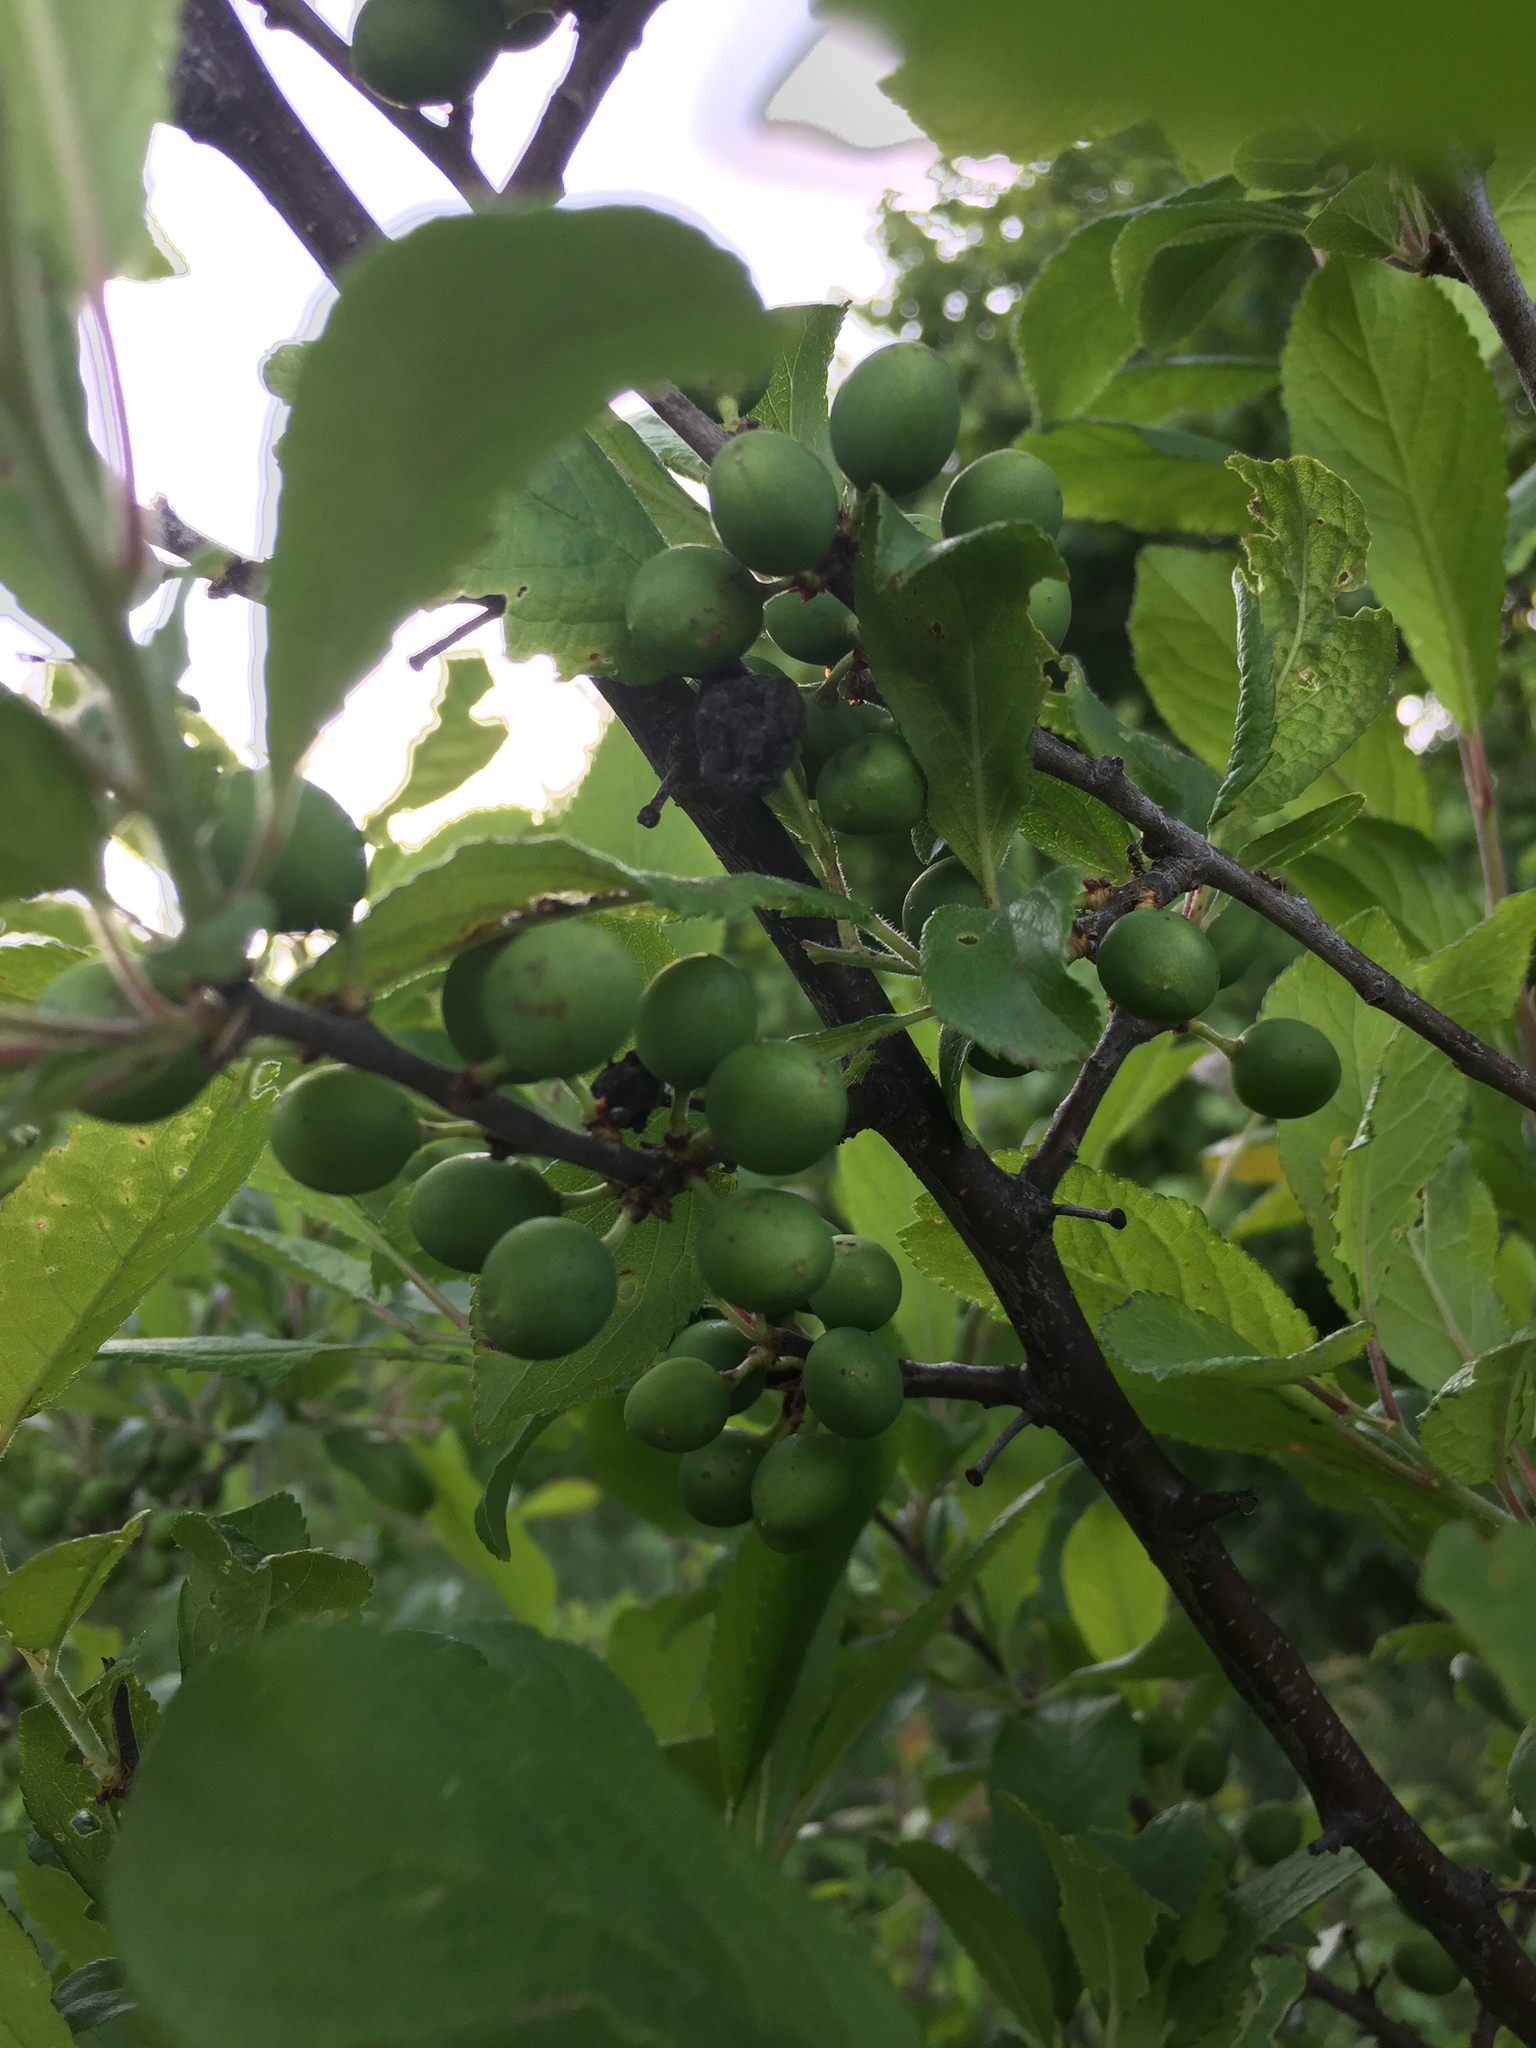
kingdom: Plantae
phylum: Tracheophyta
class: Magnoliopsida
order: Rosales
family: Rosaceae
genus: Prunus
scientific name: Prunus spinosa
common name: Blackthorn
